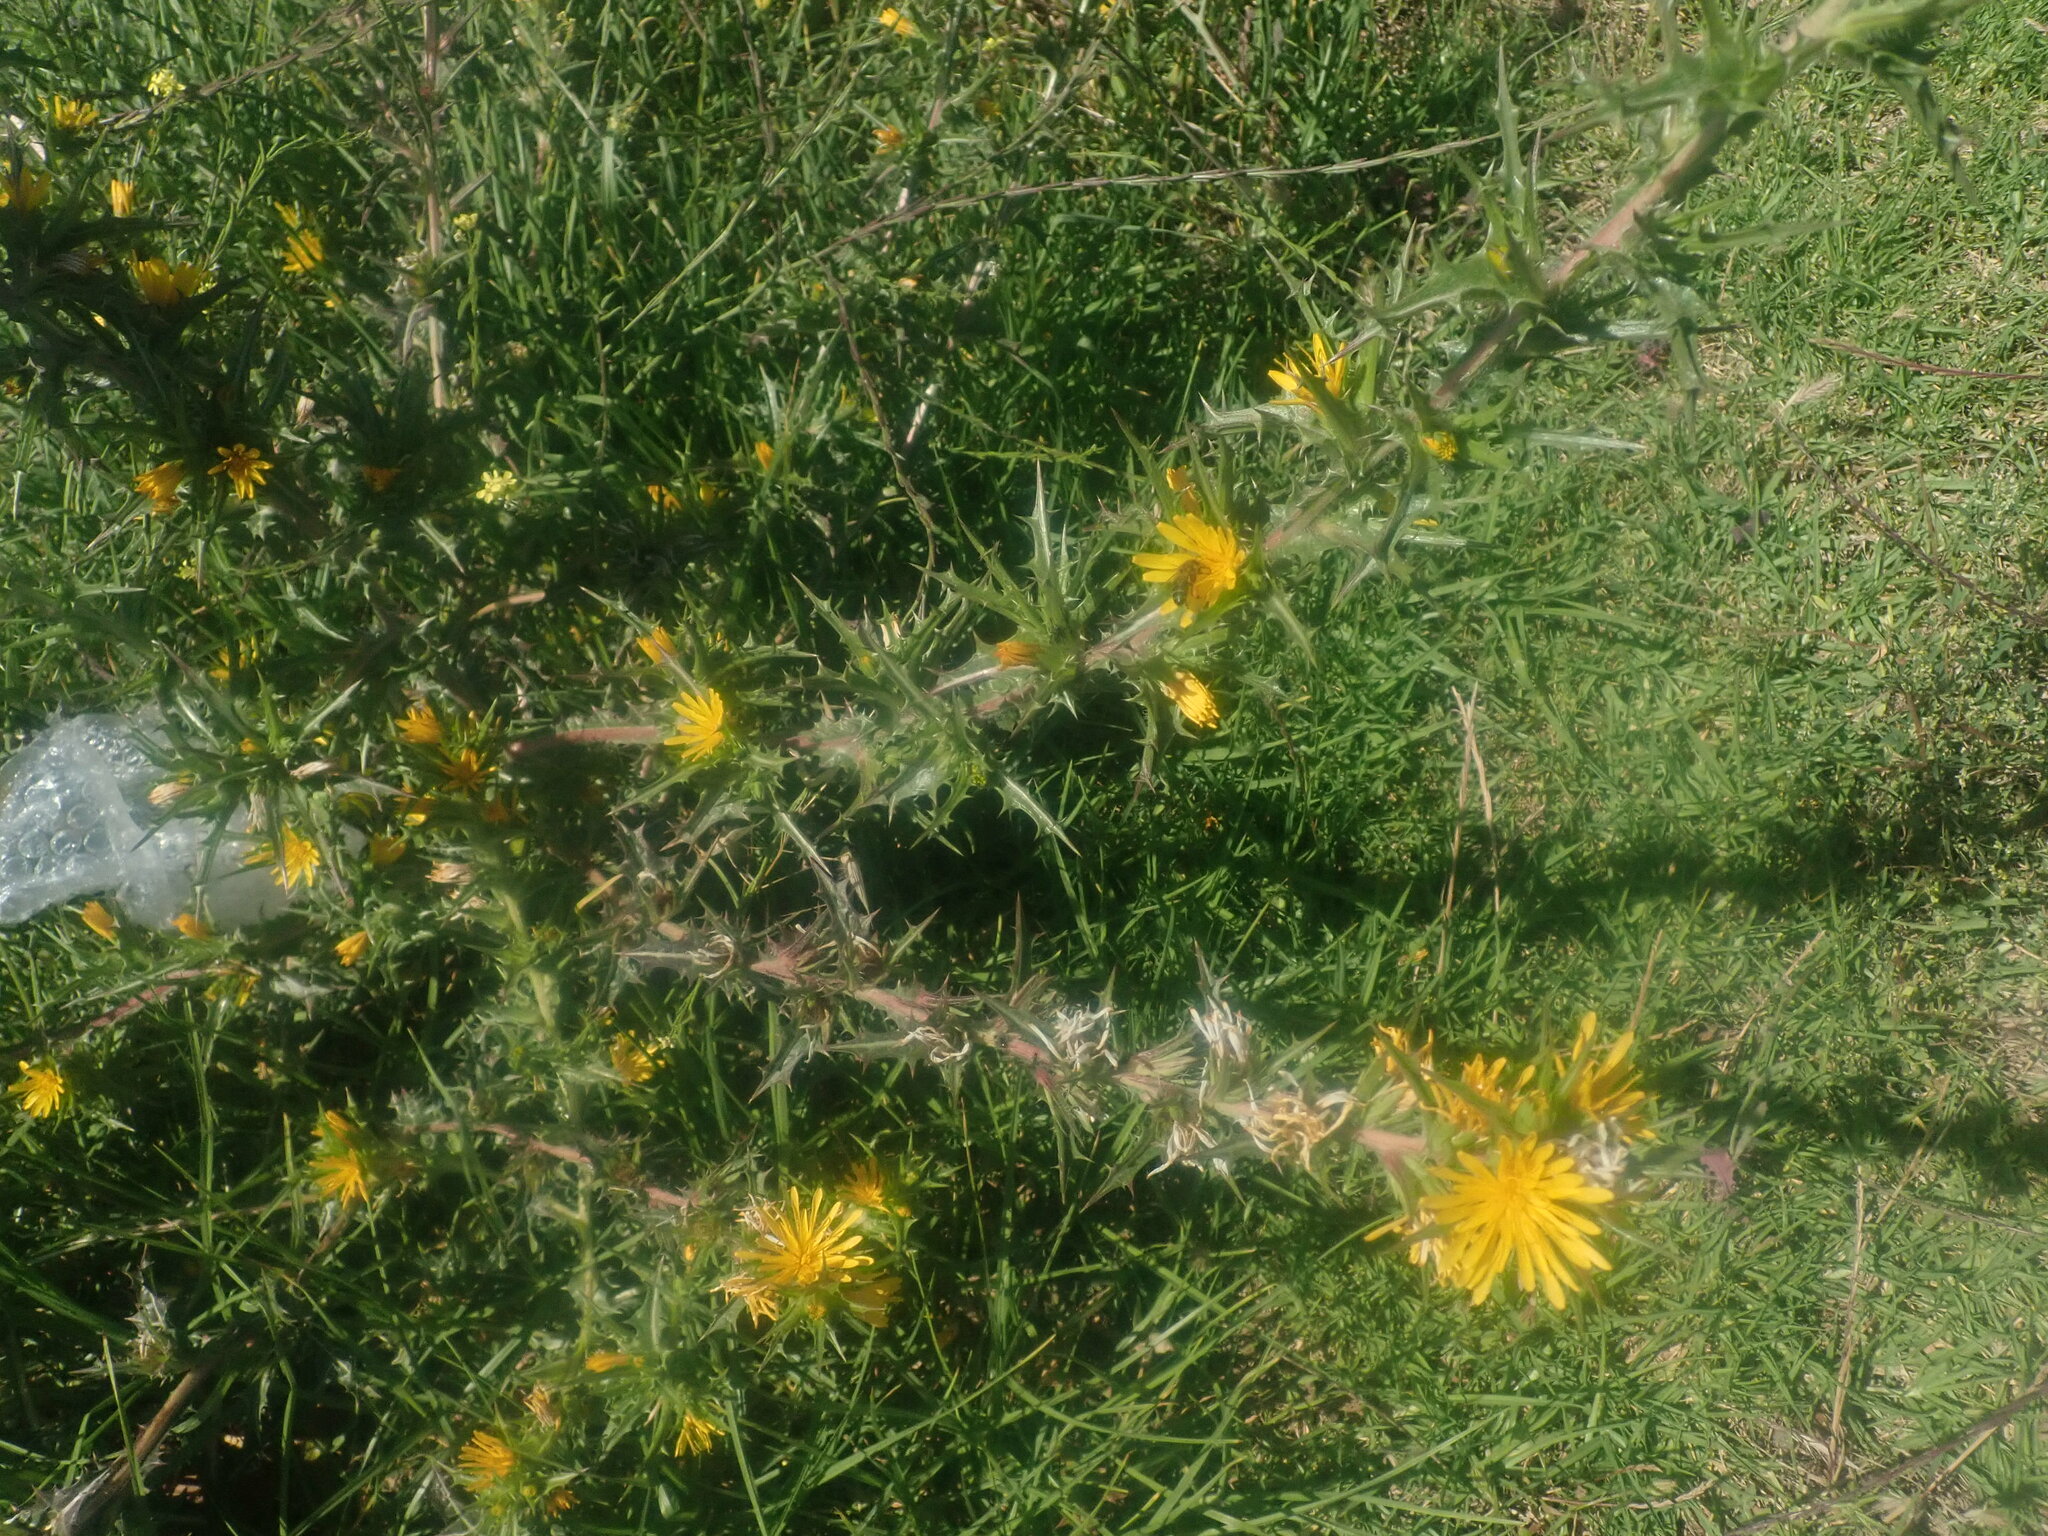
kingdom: Plantae
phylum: Tracheophyta
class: Magnoliopsida
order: Asterales
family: Asteraceae
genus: Scolymus
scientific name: Scolymus hispanicus
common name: Golden thistle
